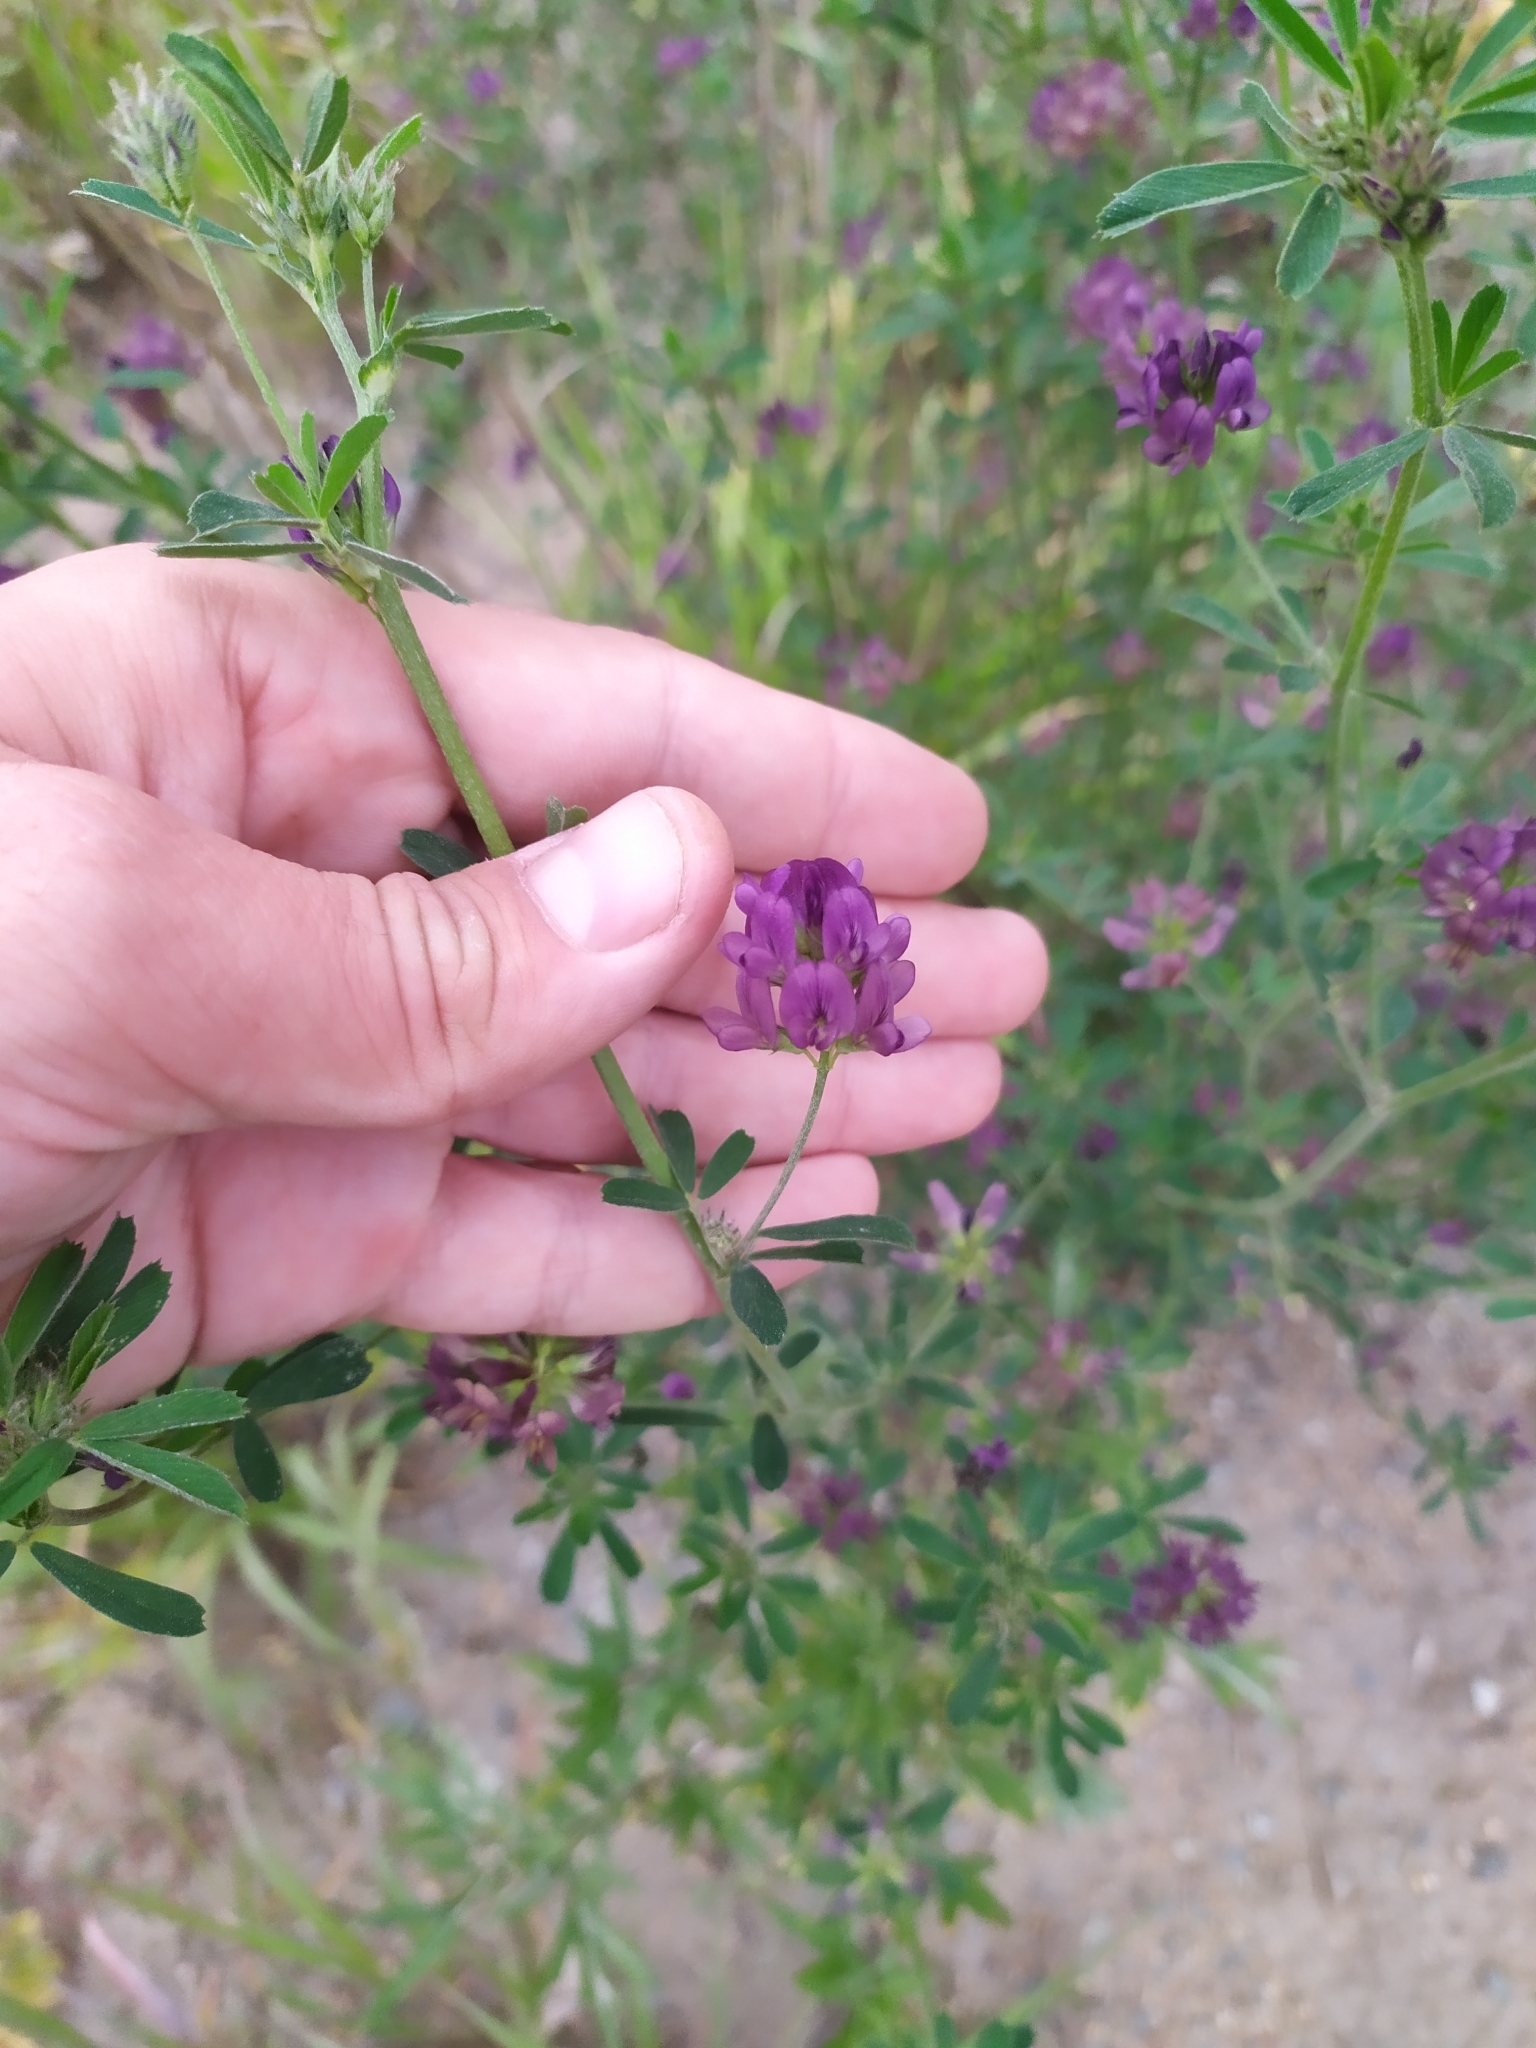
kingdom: Plantae
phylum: Tracheophyta
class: Magnoliopsida
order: Fabales
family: Fabaceae
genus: Medicago
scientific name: Medicago varia
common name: Sand lucerne
